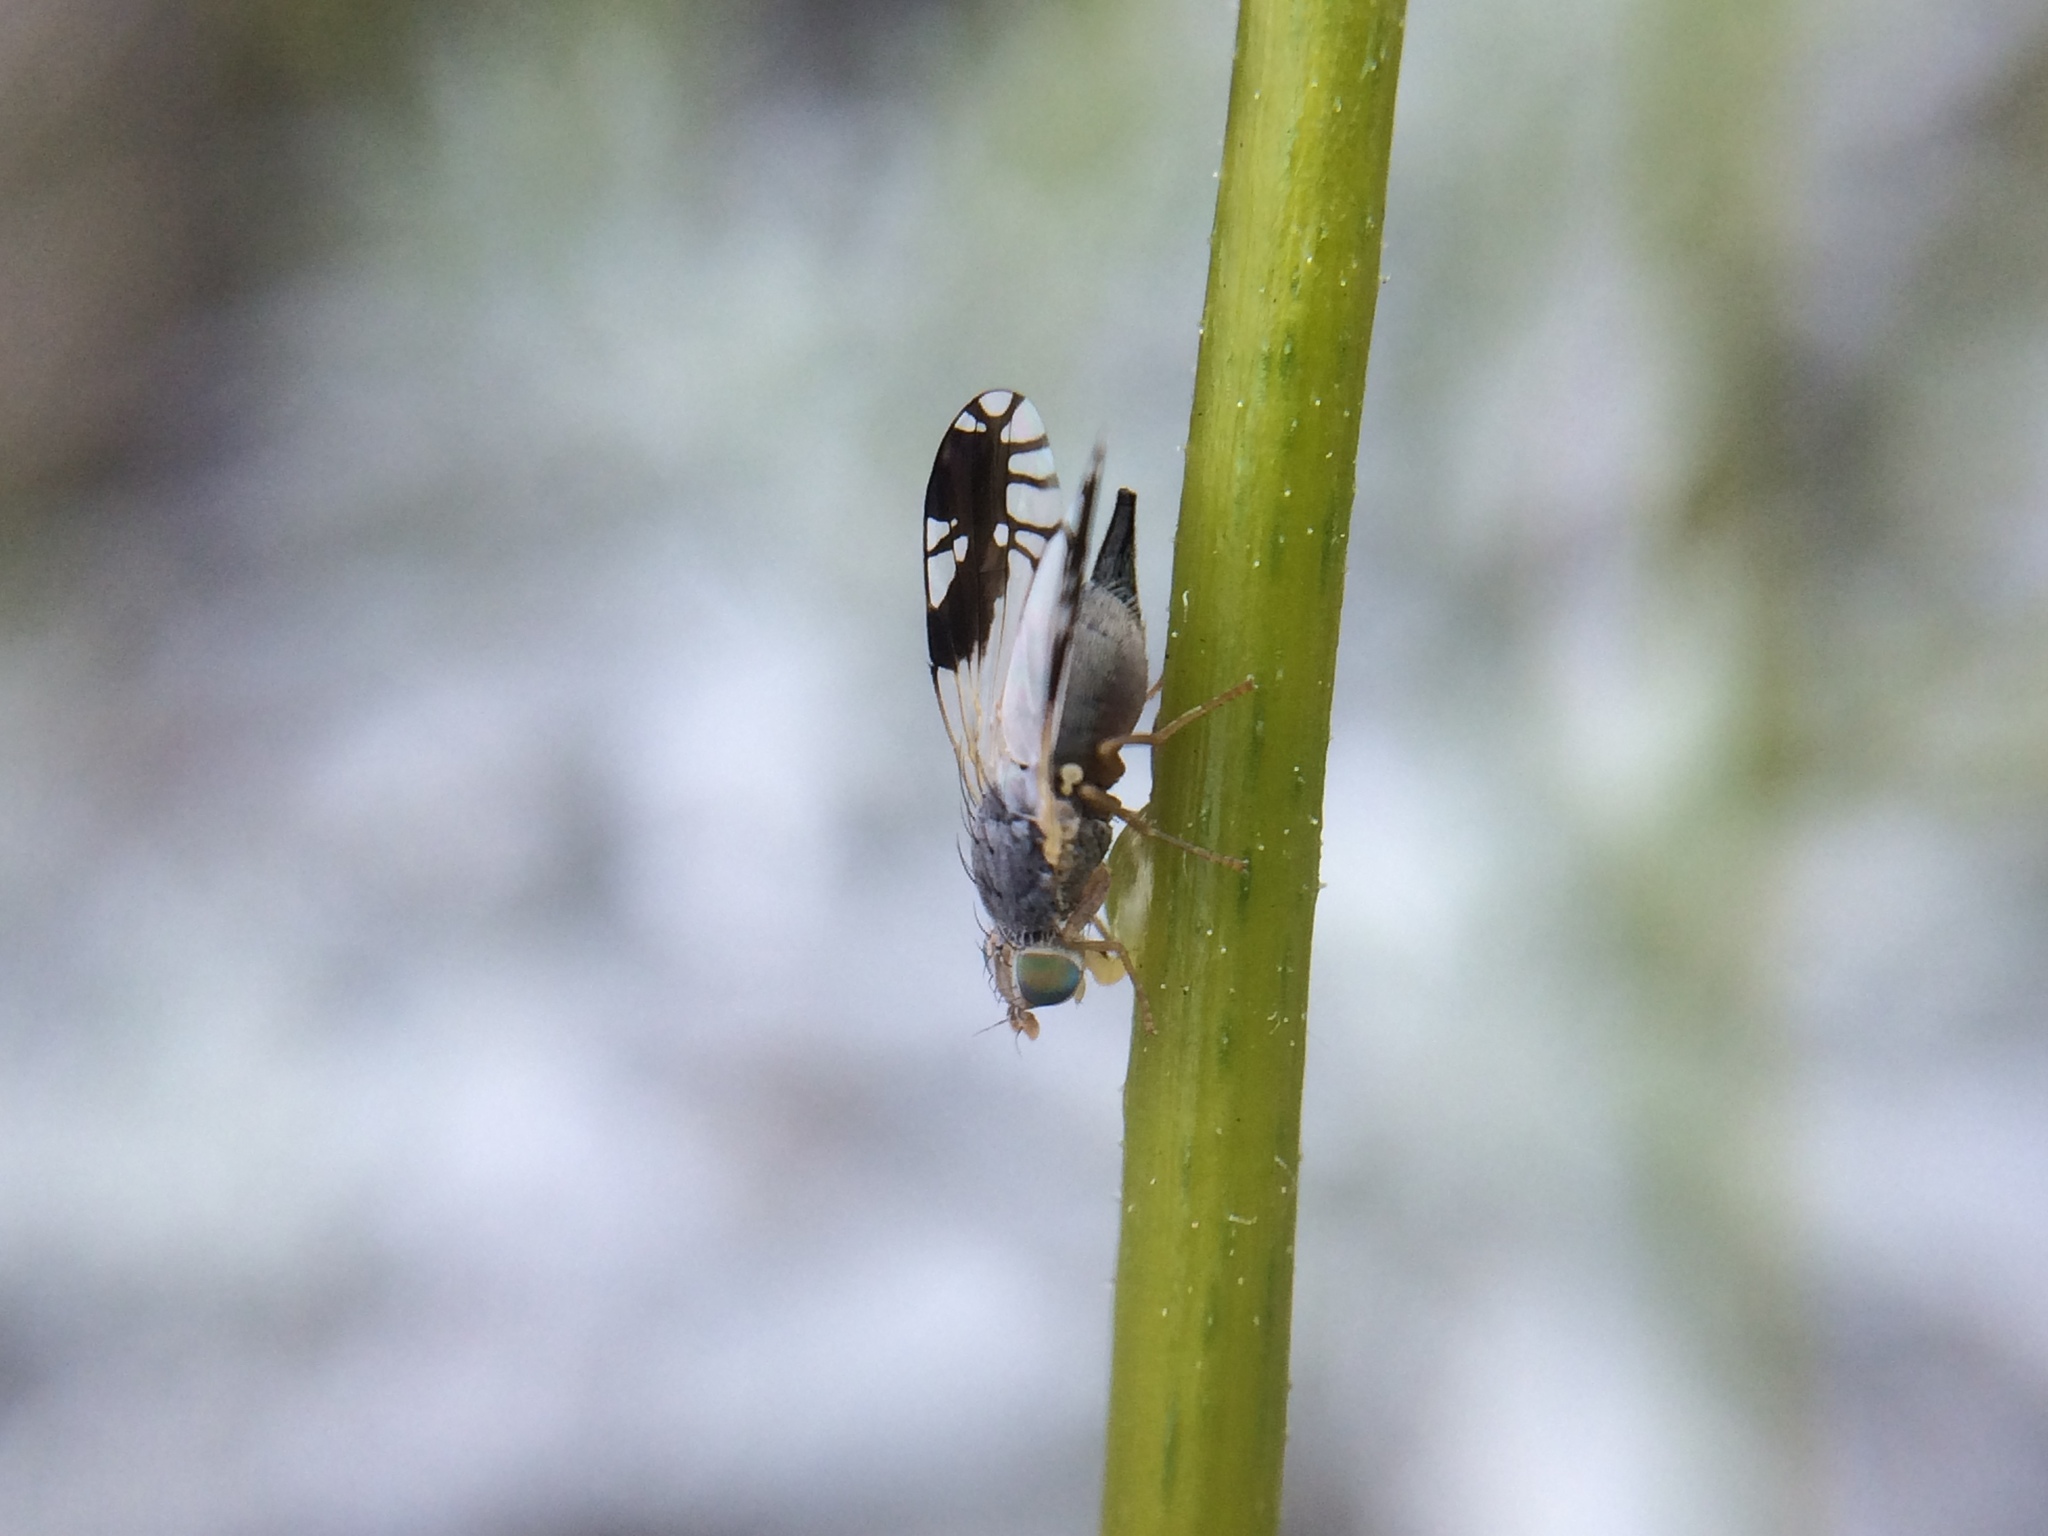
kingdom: Animalia
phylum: Arthropoda
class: Insecta
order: Diptera
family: Tephritidae
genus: Trupanea
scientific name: Trupanea nigricornis
